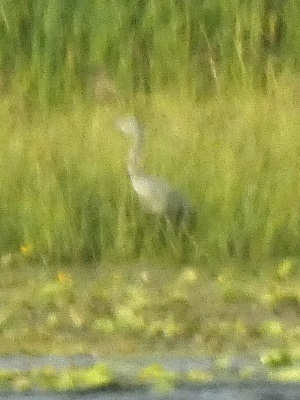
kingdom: Animalia
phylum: Chordata
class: Aves
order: Pelecaniformes
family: Ardeidae
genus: Ardea
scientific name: Ardea cinerea
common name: Grey heron
